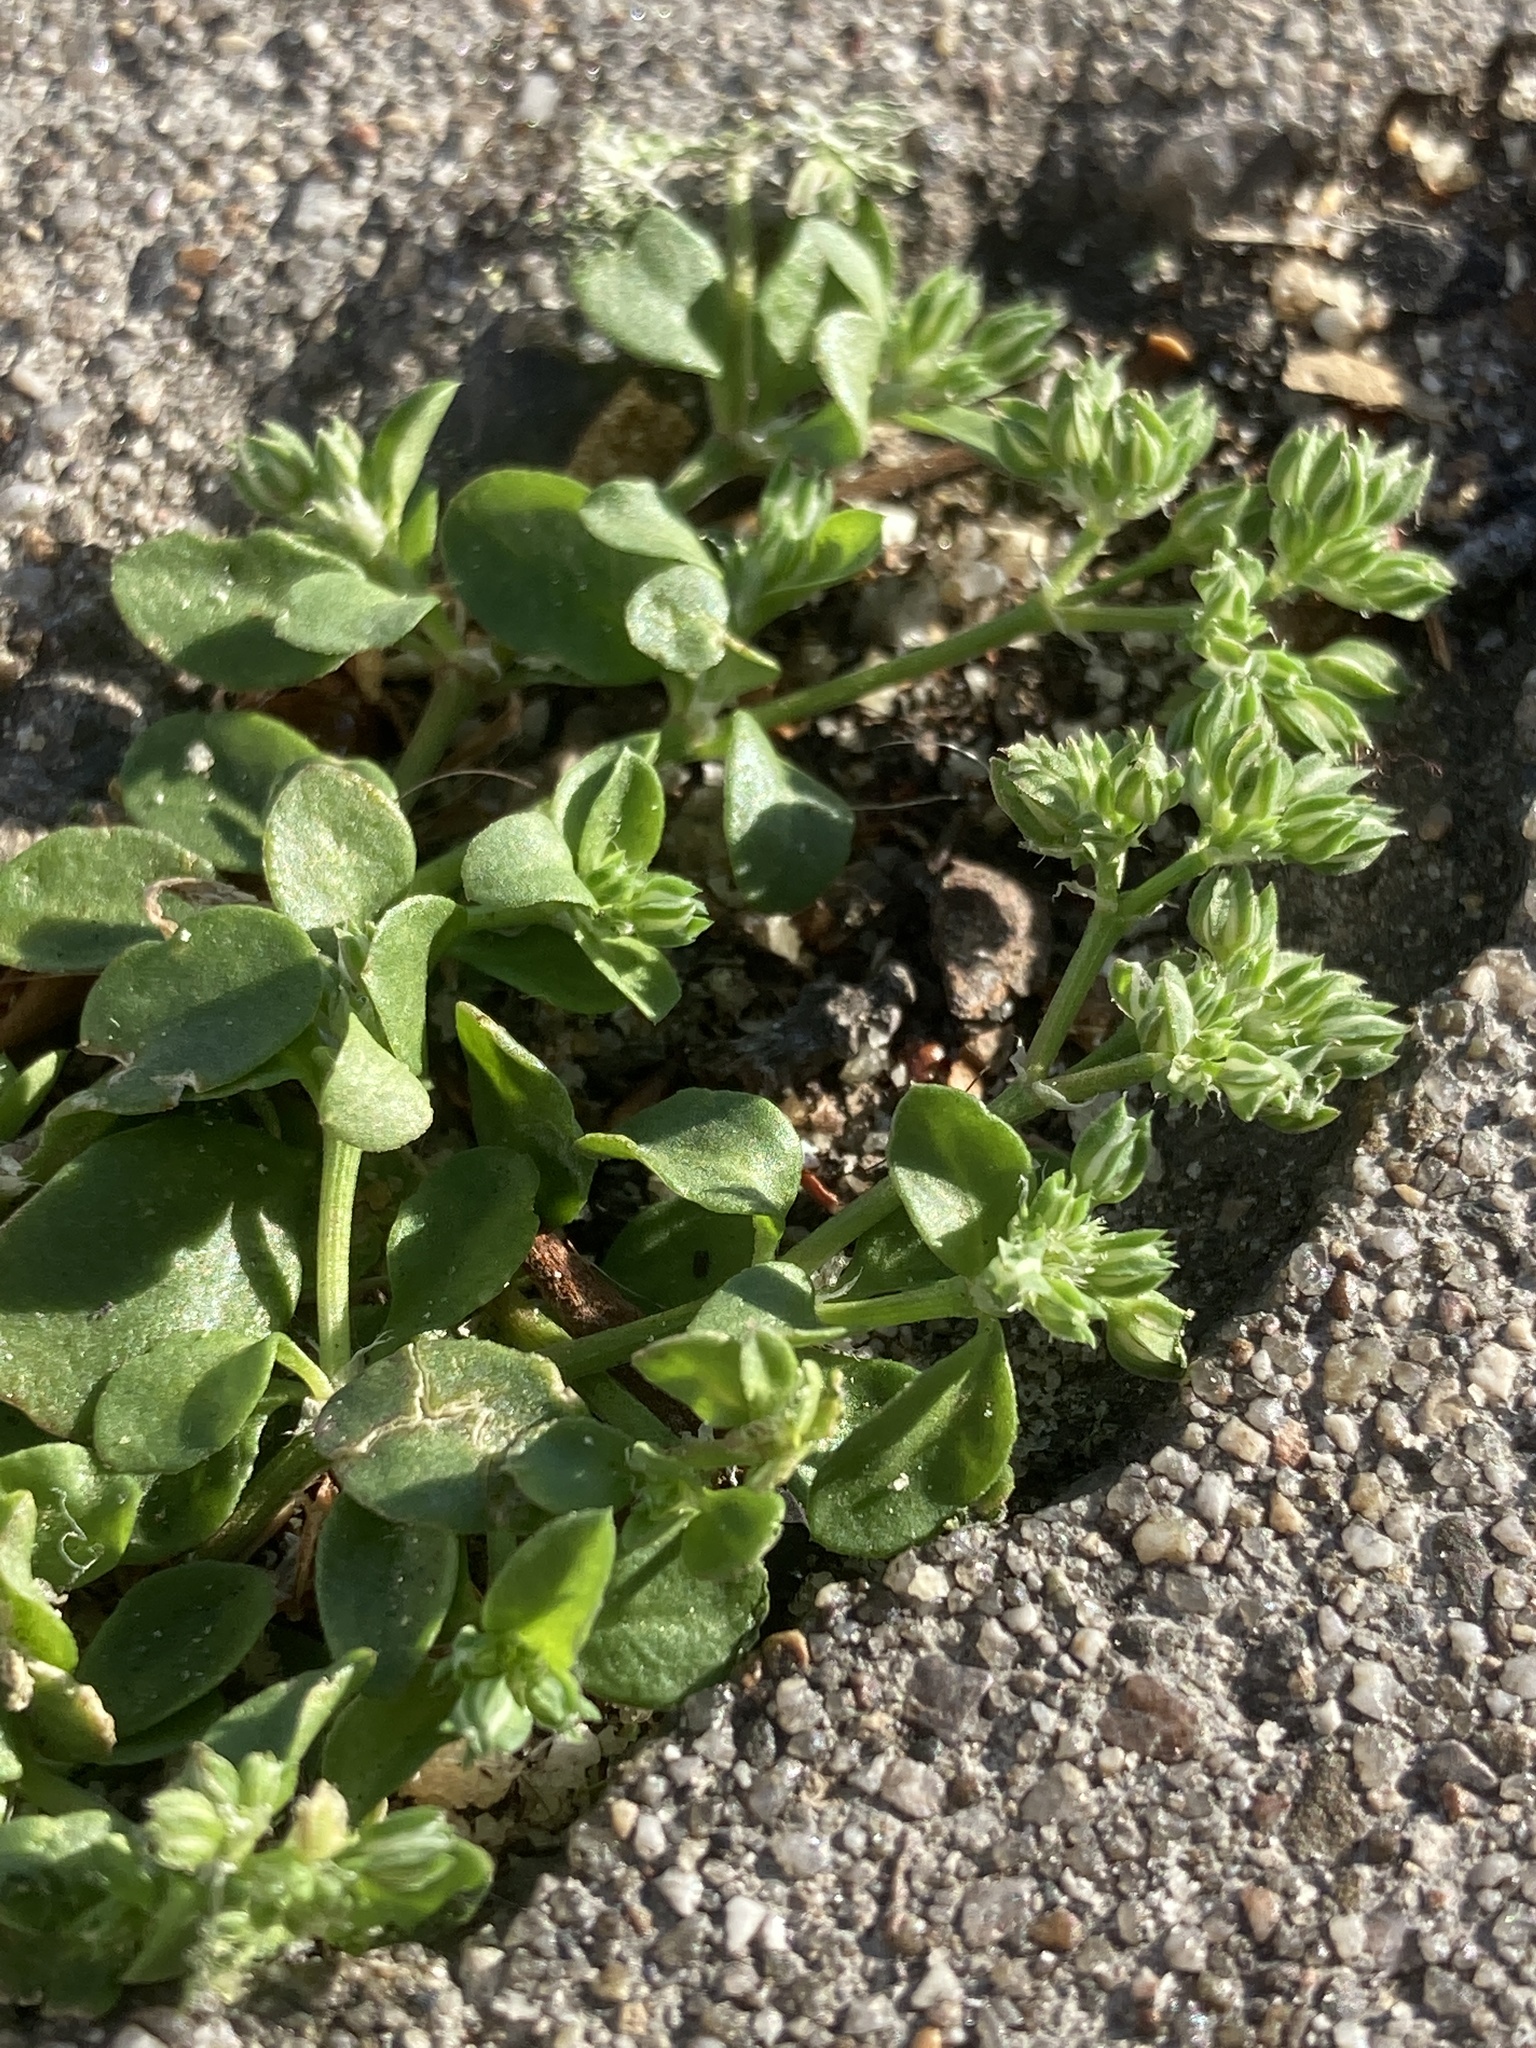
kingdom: Plantae
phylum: Tracheophyta
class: Magnoliopsida
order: Caryophyllales
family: Caryophyllaceae
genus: Polycarpon
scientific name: Polycarpon tetraphyllum
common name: Four-leaved all-seed
